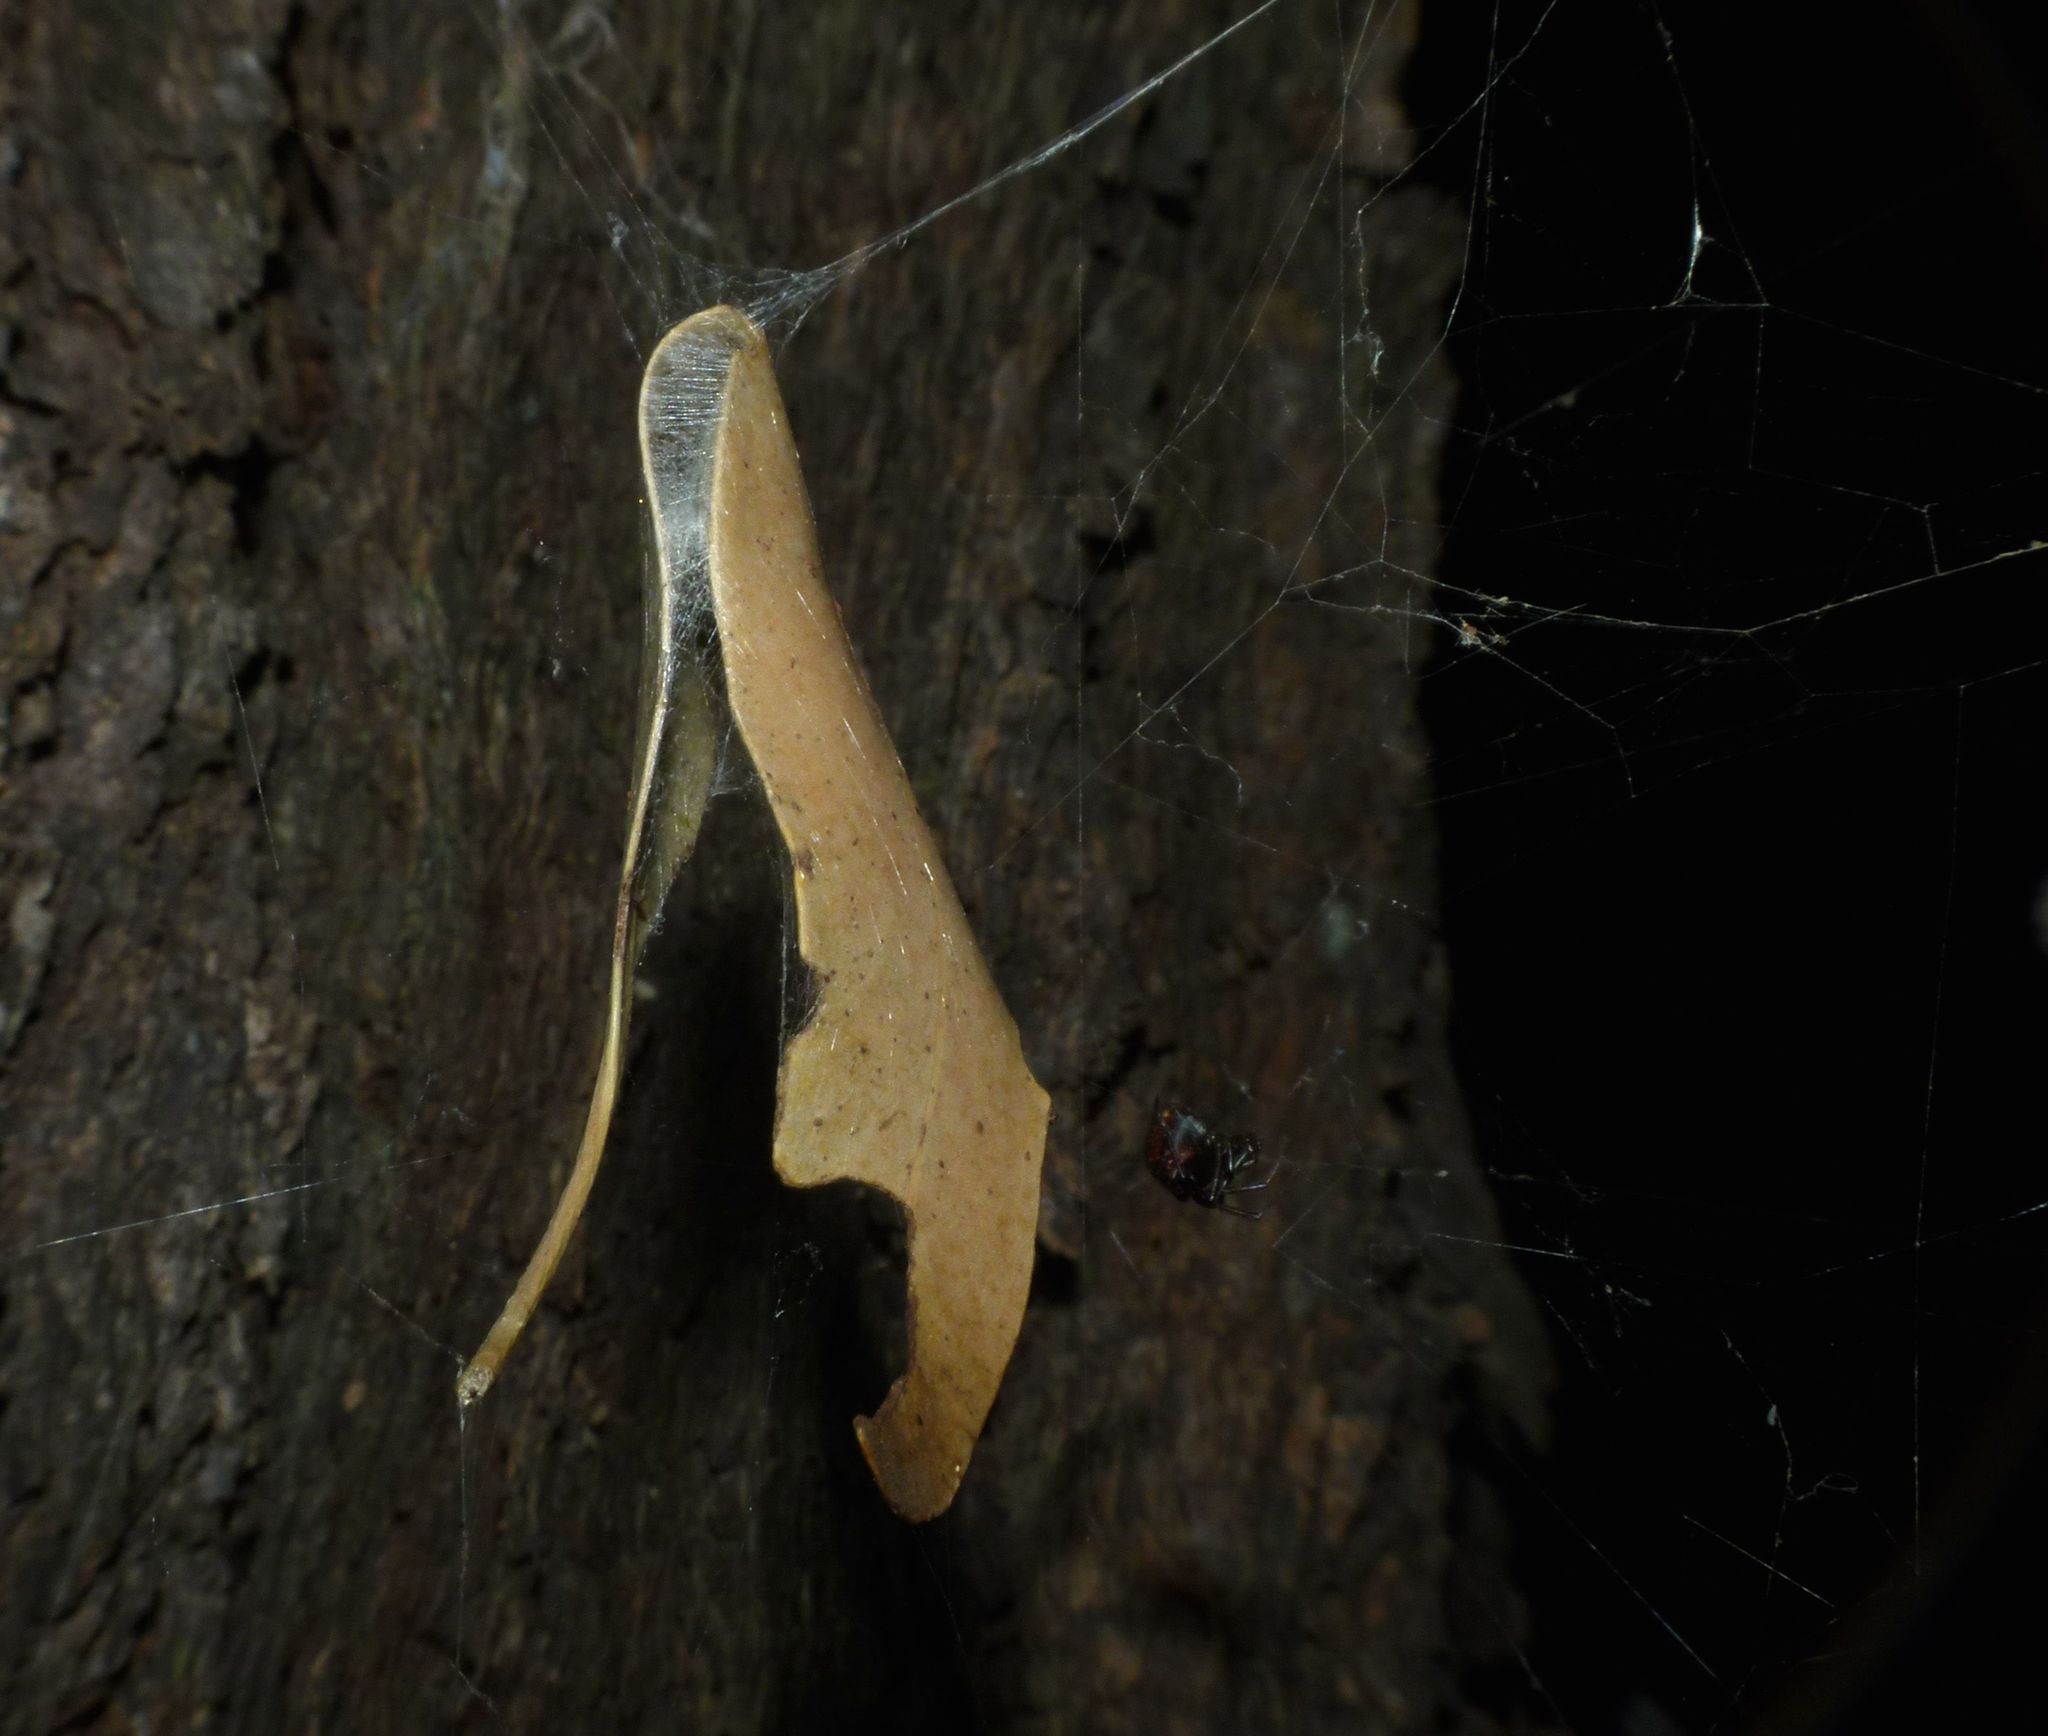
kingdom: Animalia
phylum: Arthropoda
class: Arachnida
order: Araneae
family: Theridiidae
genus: Parasteatoda
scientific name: Parasteatoda decorata
